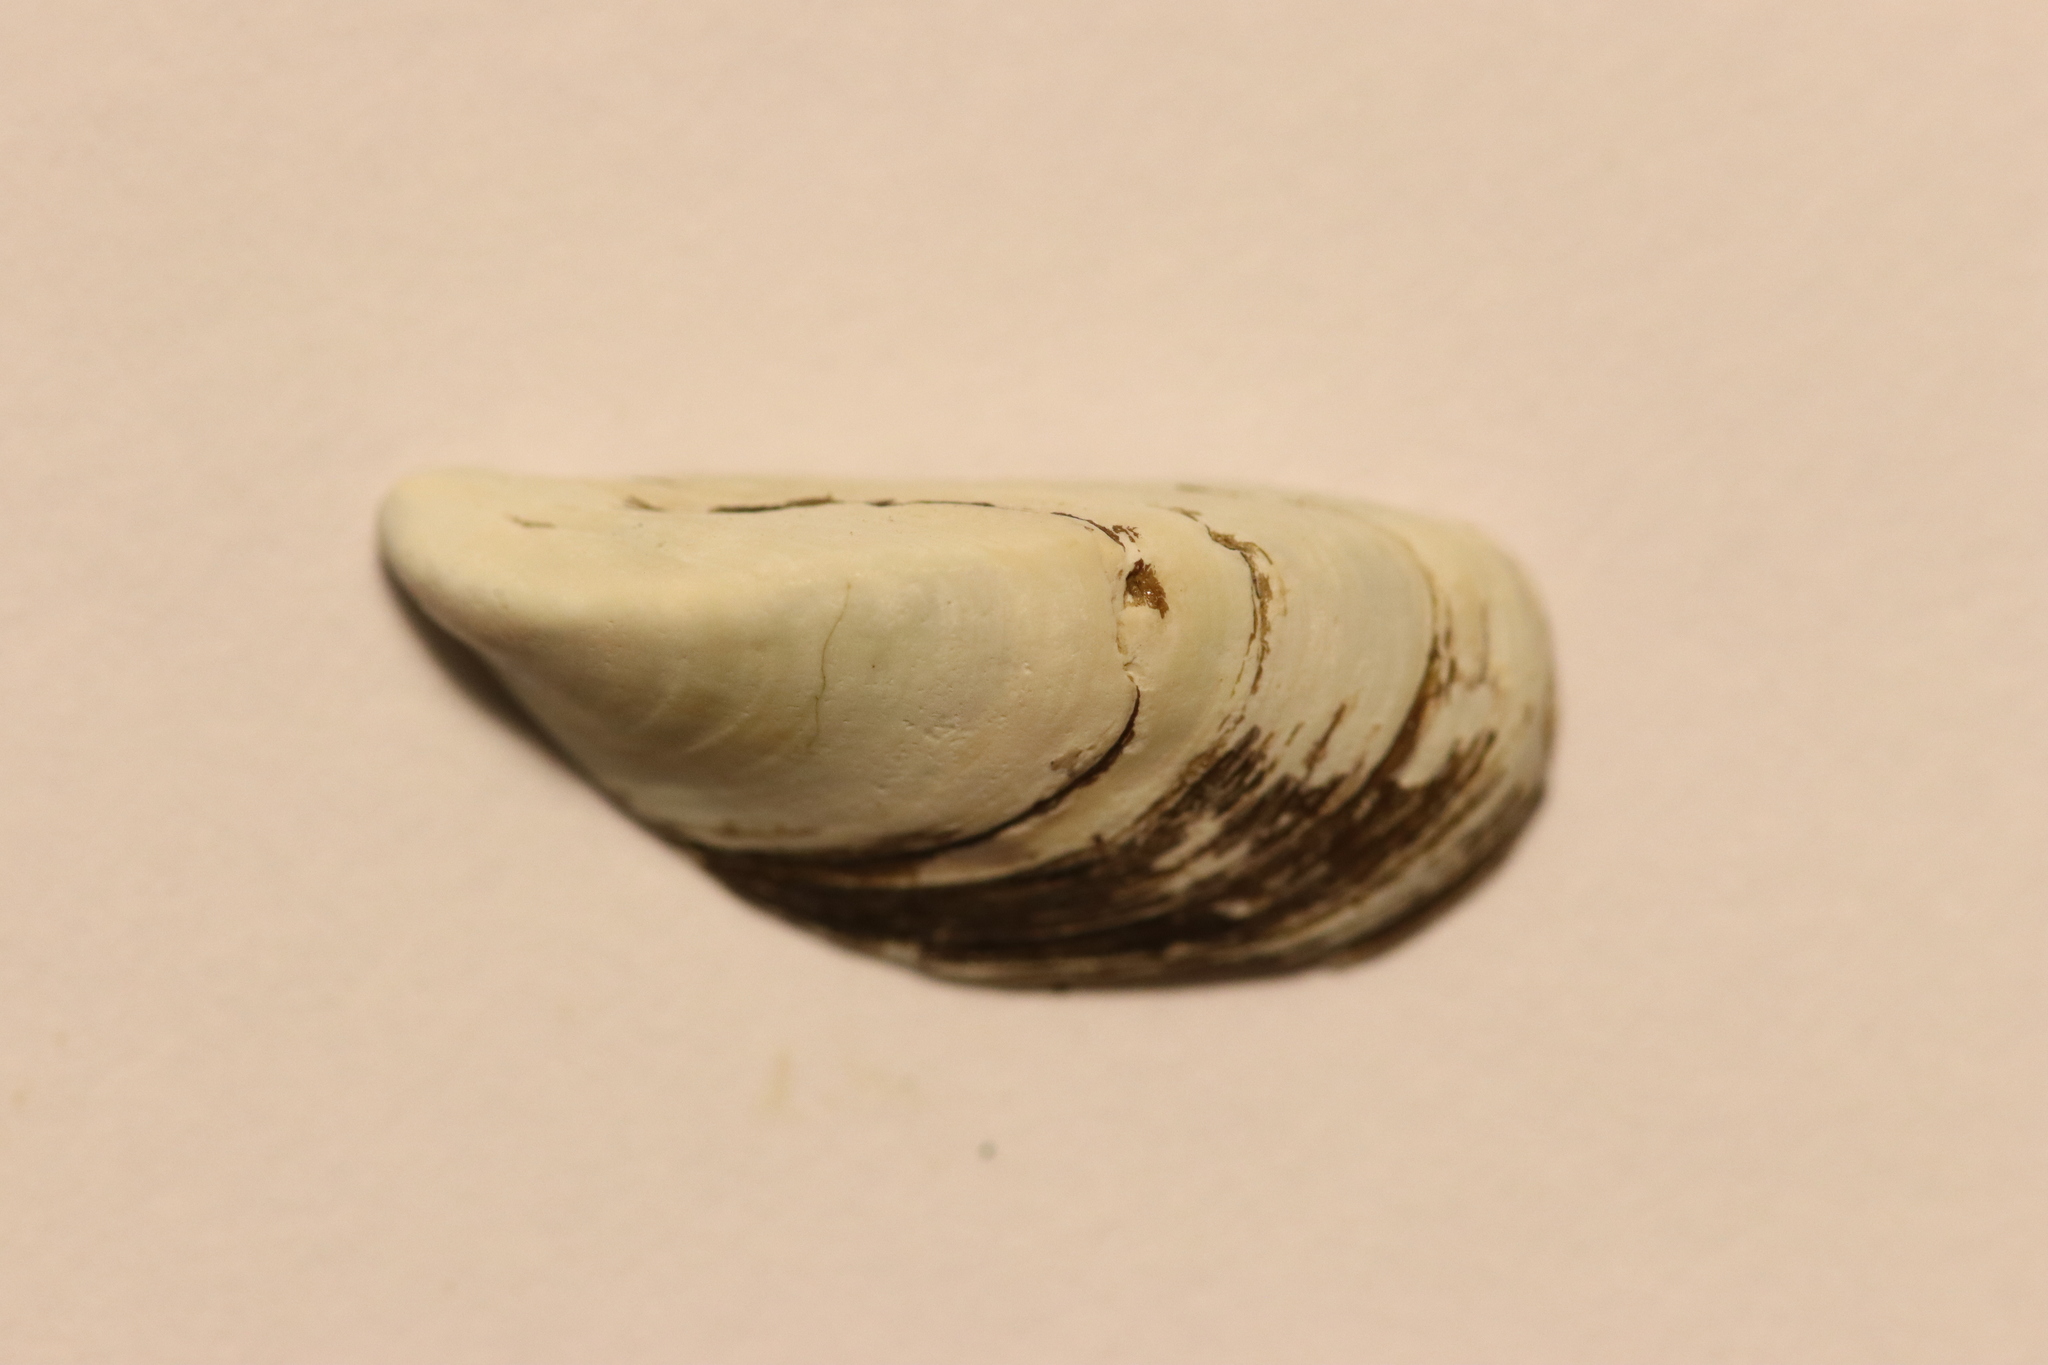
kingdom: Animalia
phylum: Mollusca
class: Bivalvia
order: Myida
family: Dreissenidae
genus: Dreissena
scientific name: Dreissena polymorpha
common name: Zebra mussel
